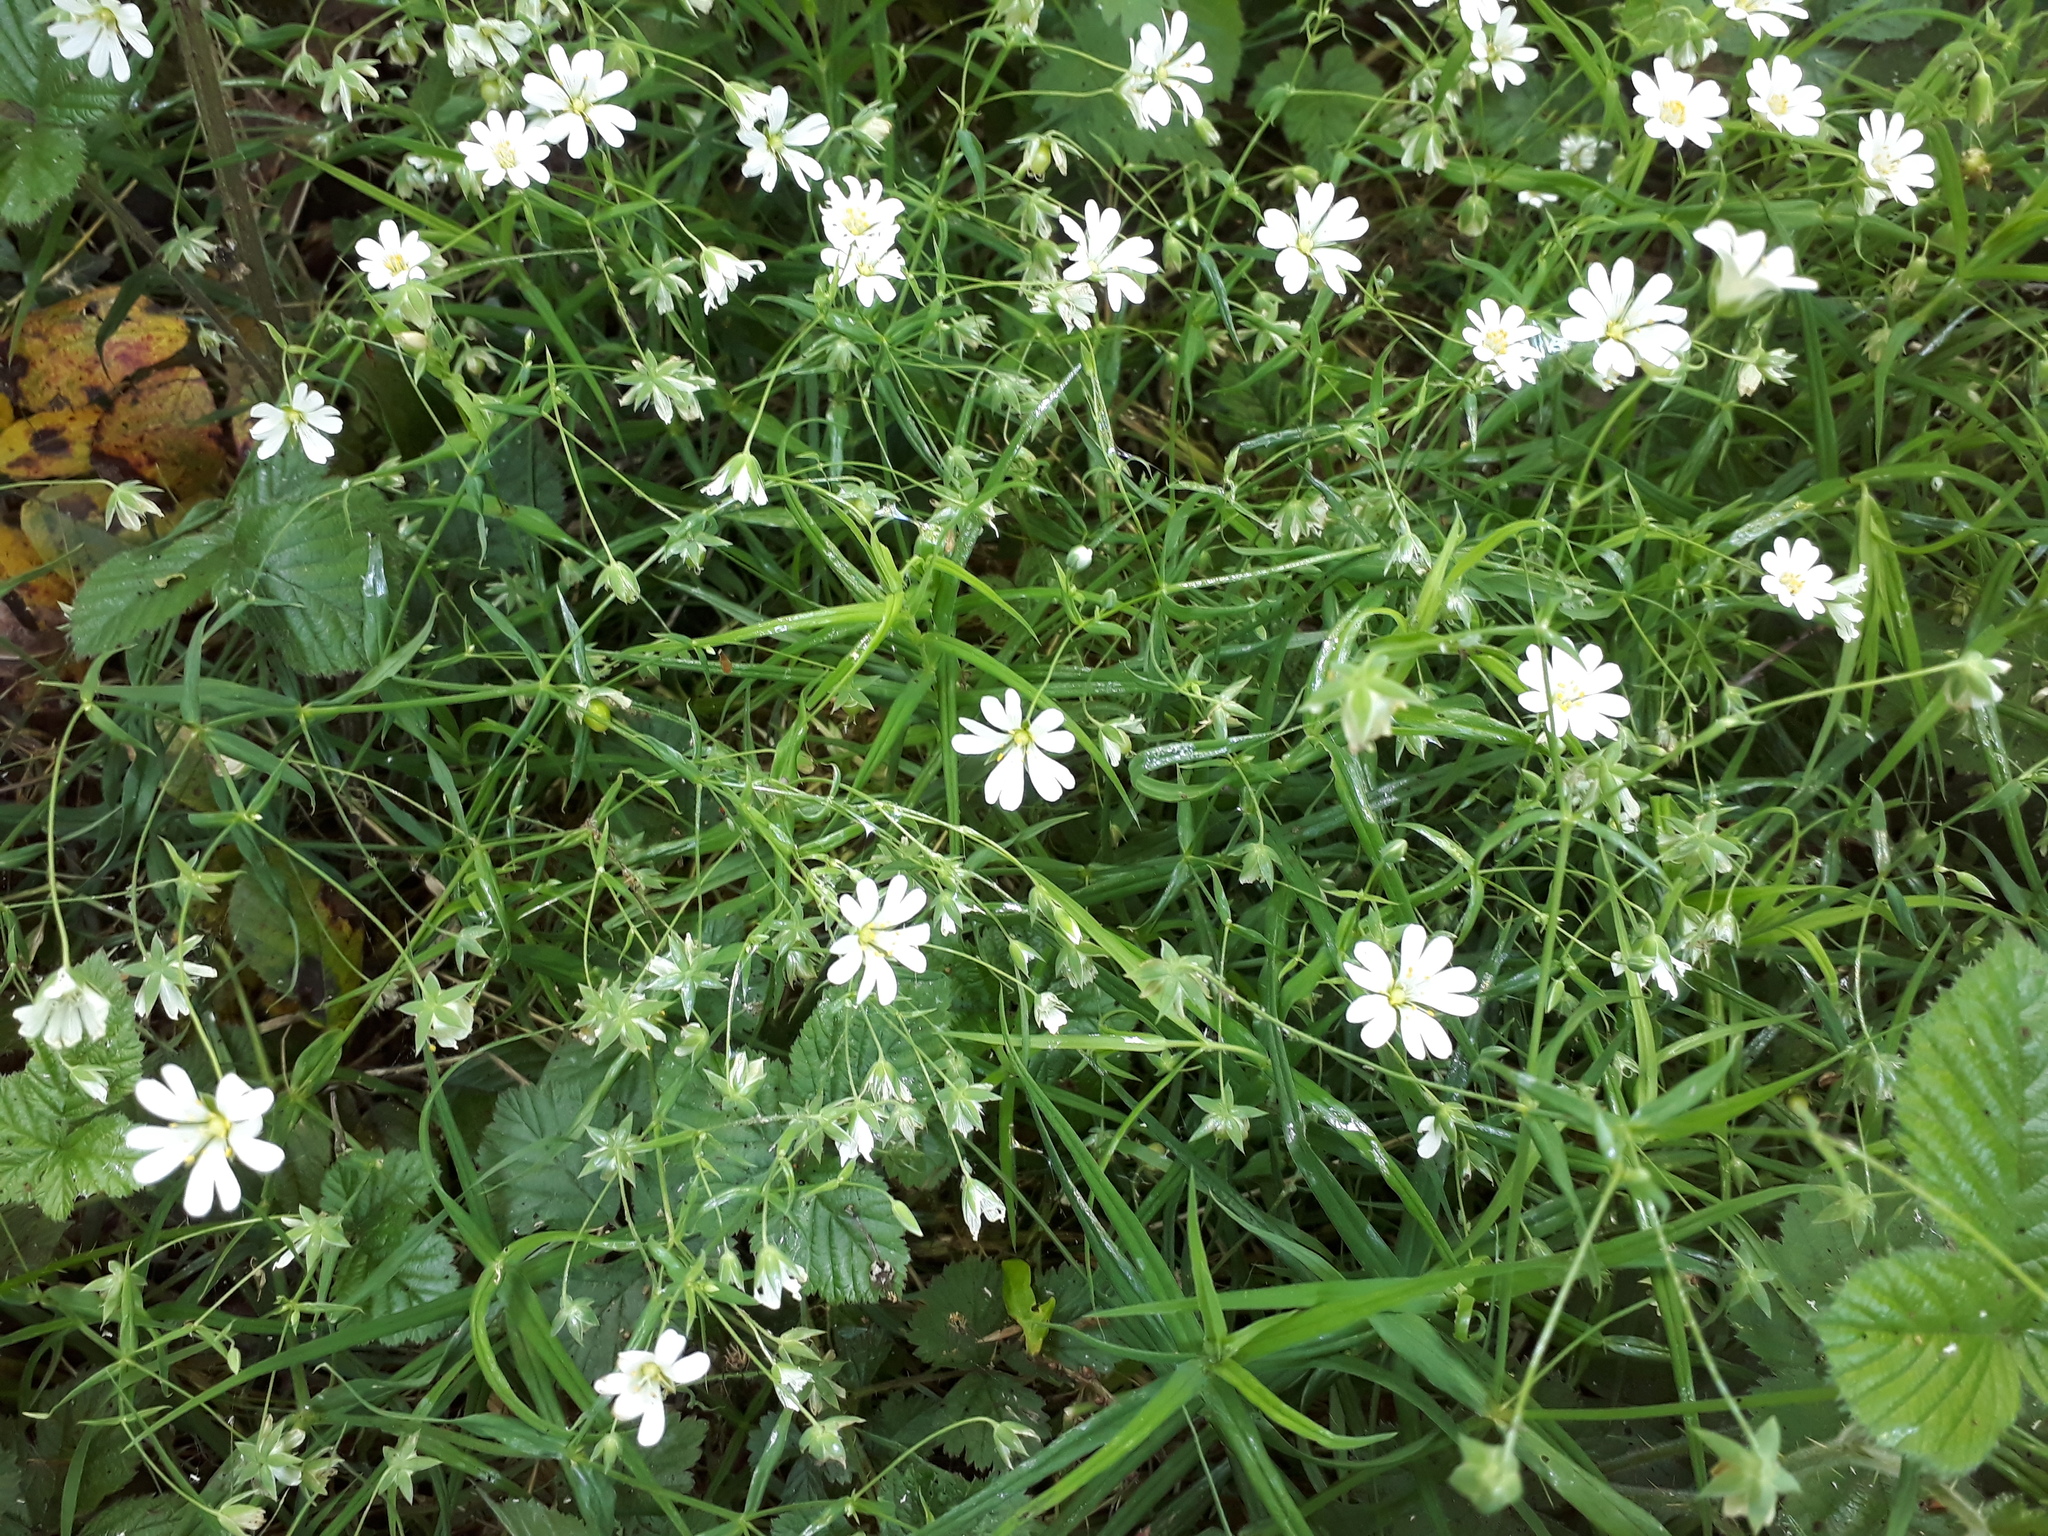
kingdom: Plantae
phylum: Tracheophyta
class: Magnoliopsida
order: Caryophyllales
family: Caryophyllaceae
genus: Rabelera
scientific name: Rabelera holostea
